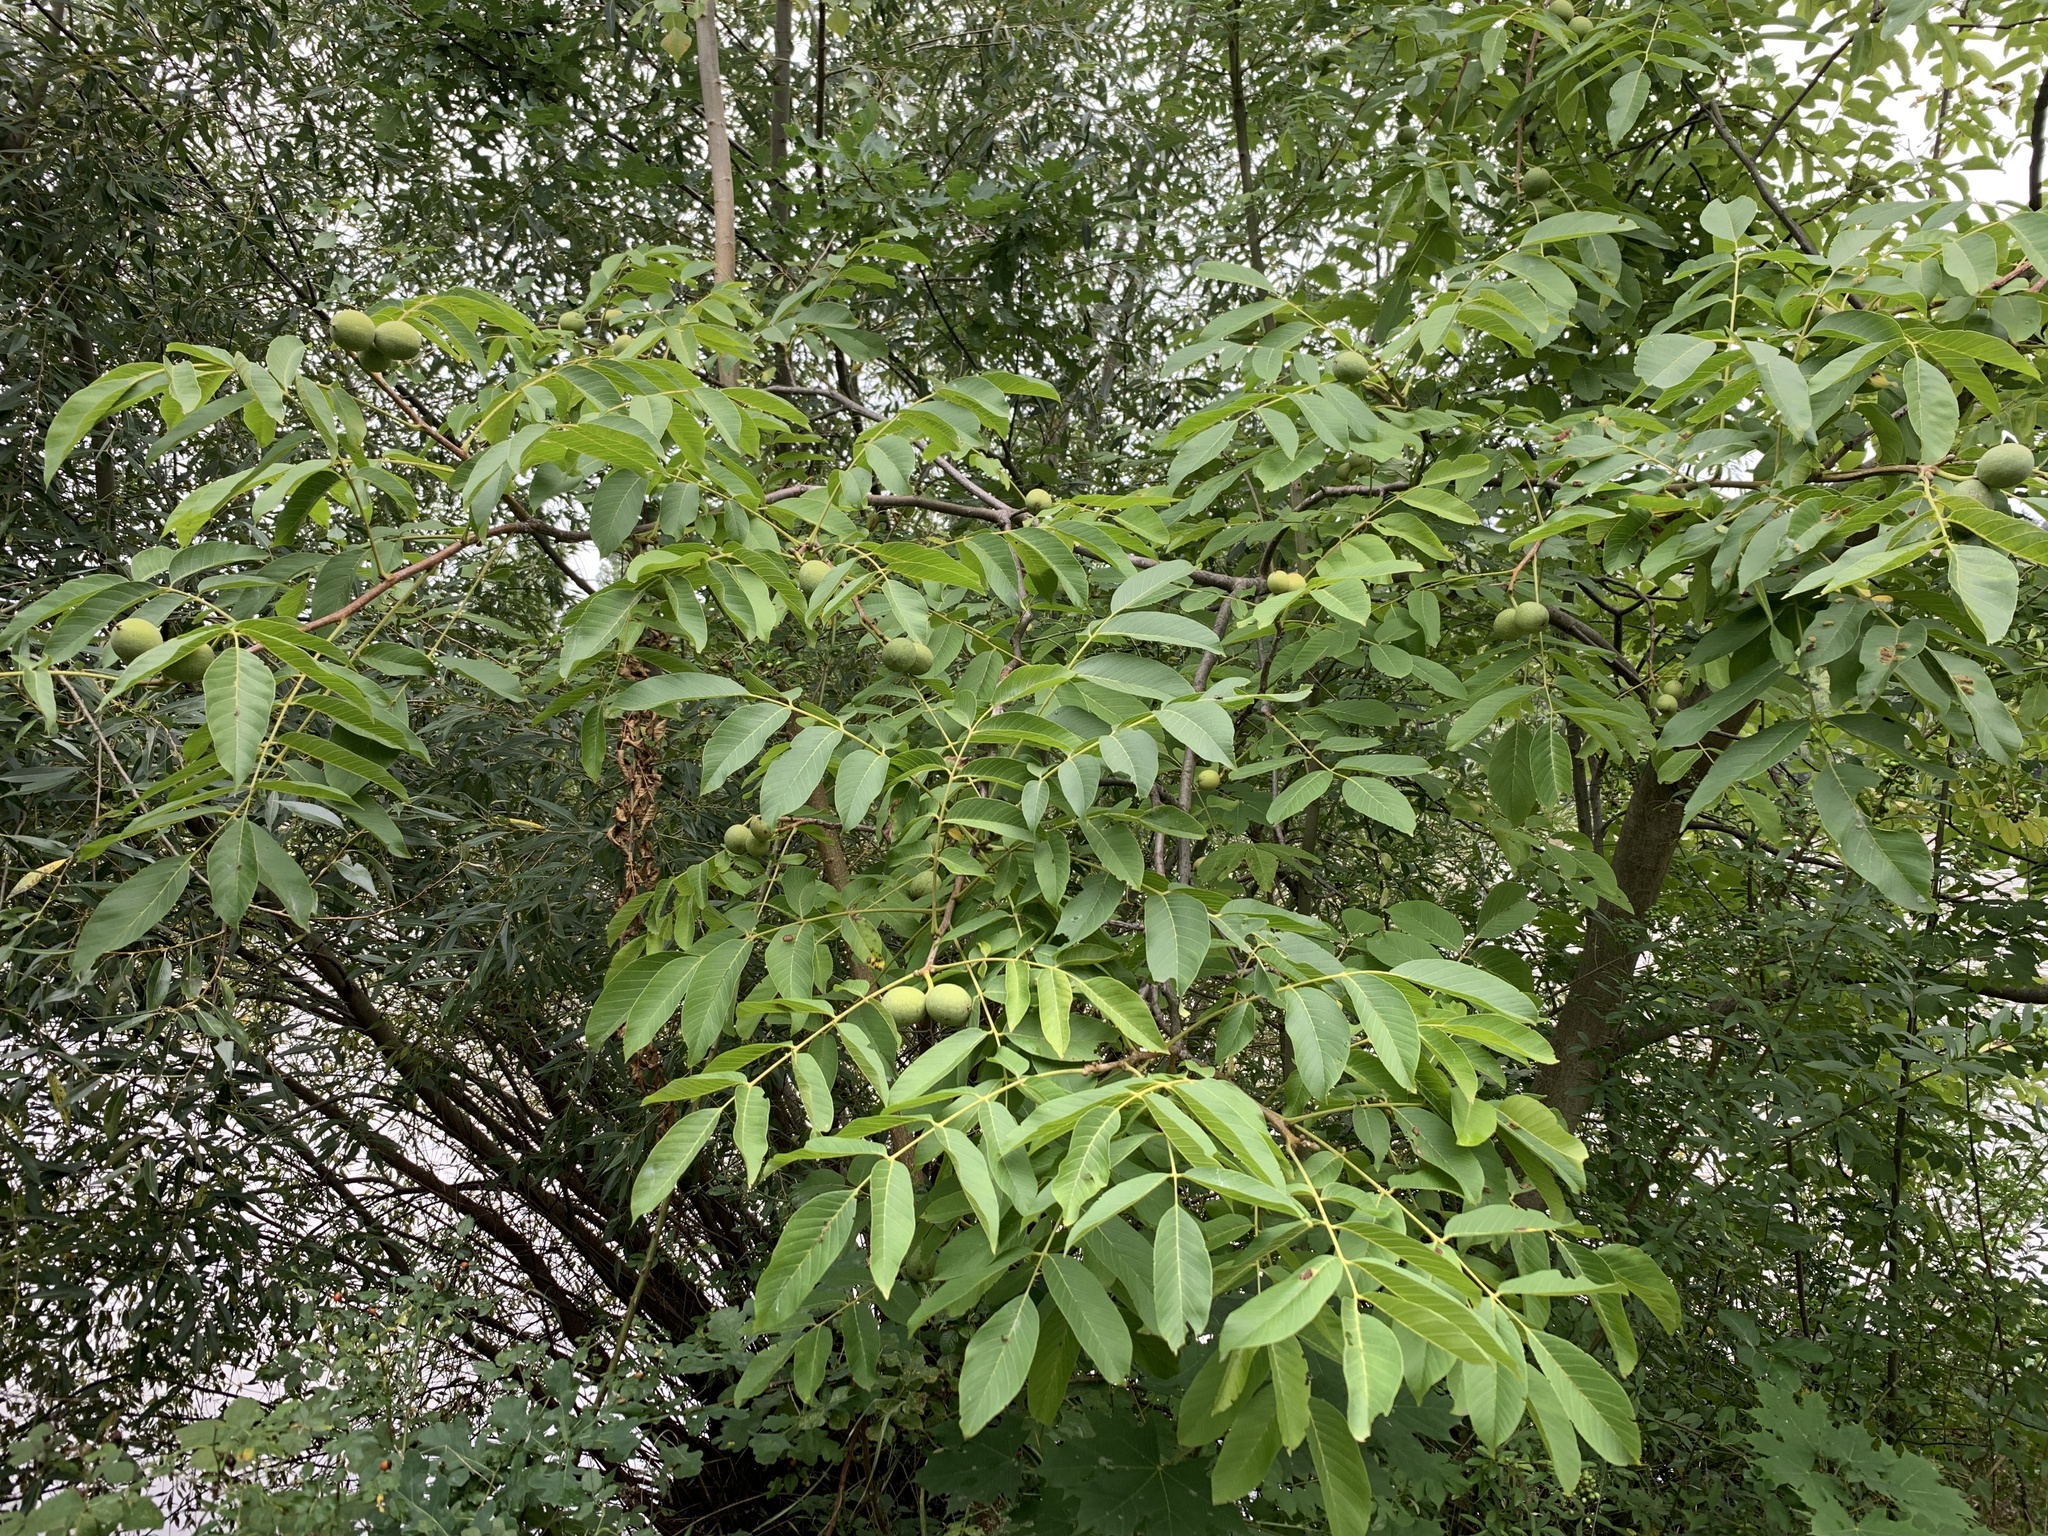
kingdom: Plantae
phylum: Tracheophyta
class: Magnoliopsida
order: Fagales
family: Juglandaceae
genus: Juglans
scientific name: Juglans nigra
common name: Black walnut
